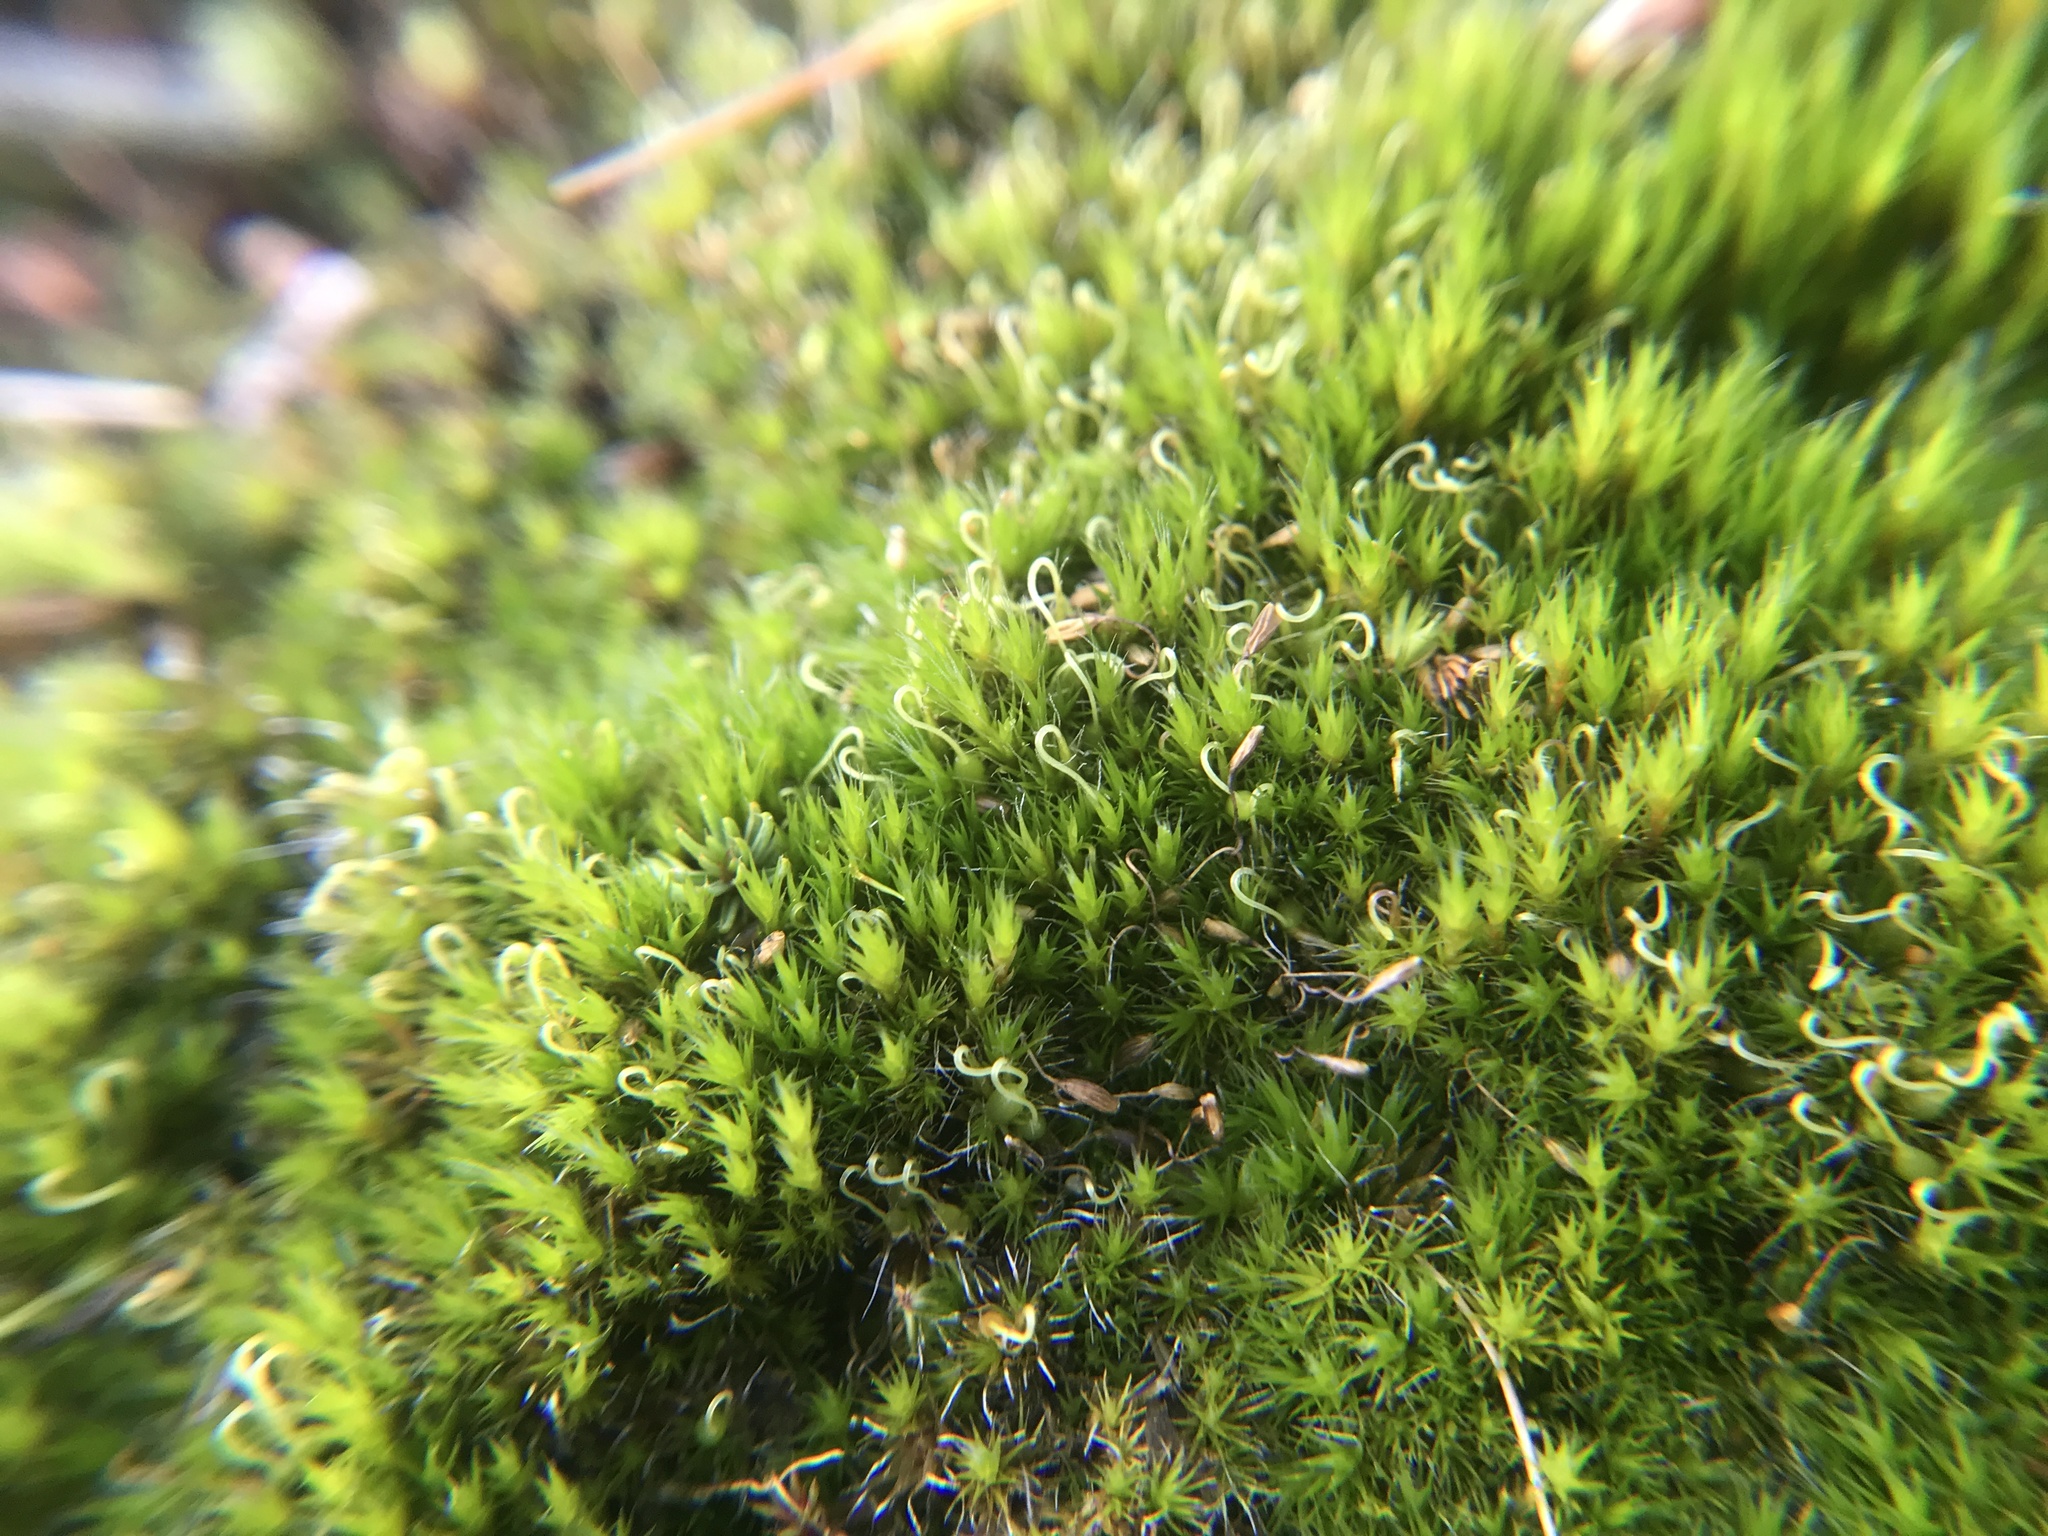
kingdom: Plantae
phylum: Bryophyta
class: Bryopsida
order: Dicranales
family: Leucobryaceae
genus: Campylopus
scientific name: Campylopus introflexus
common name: Heath star moss
